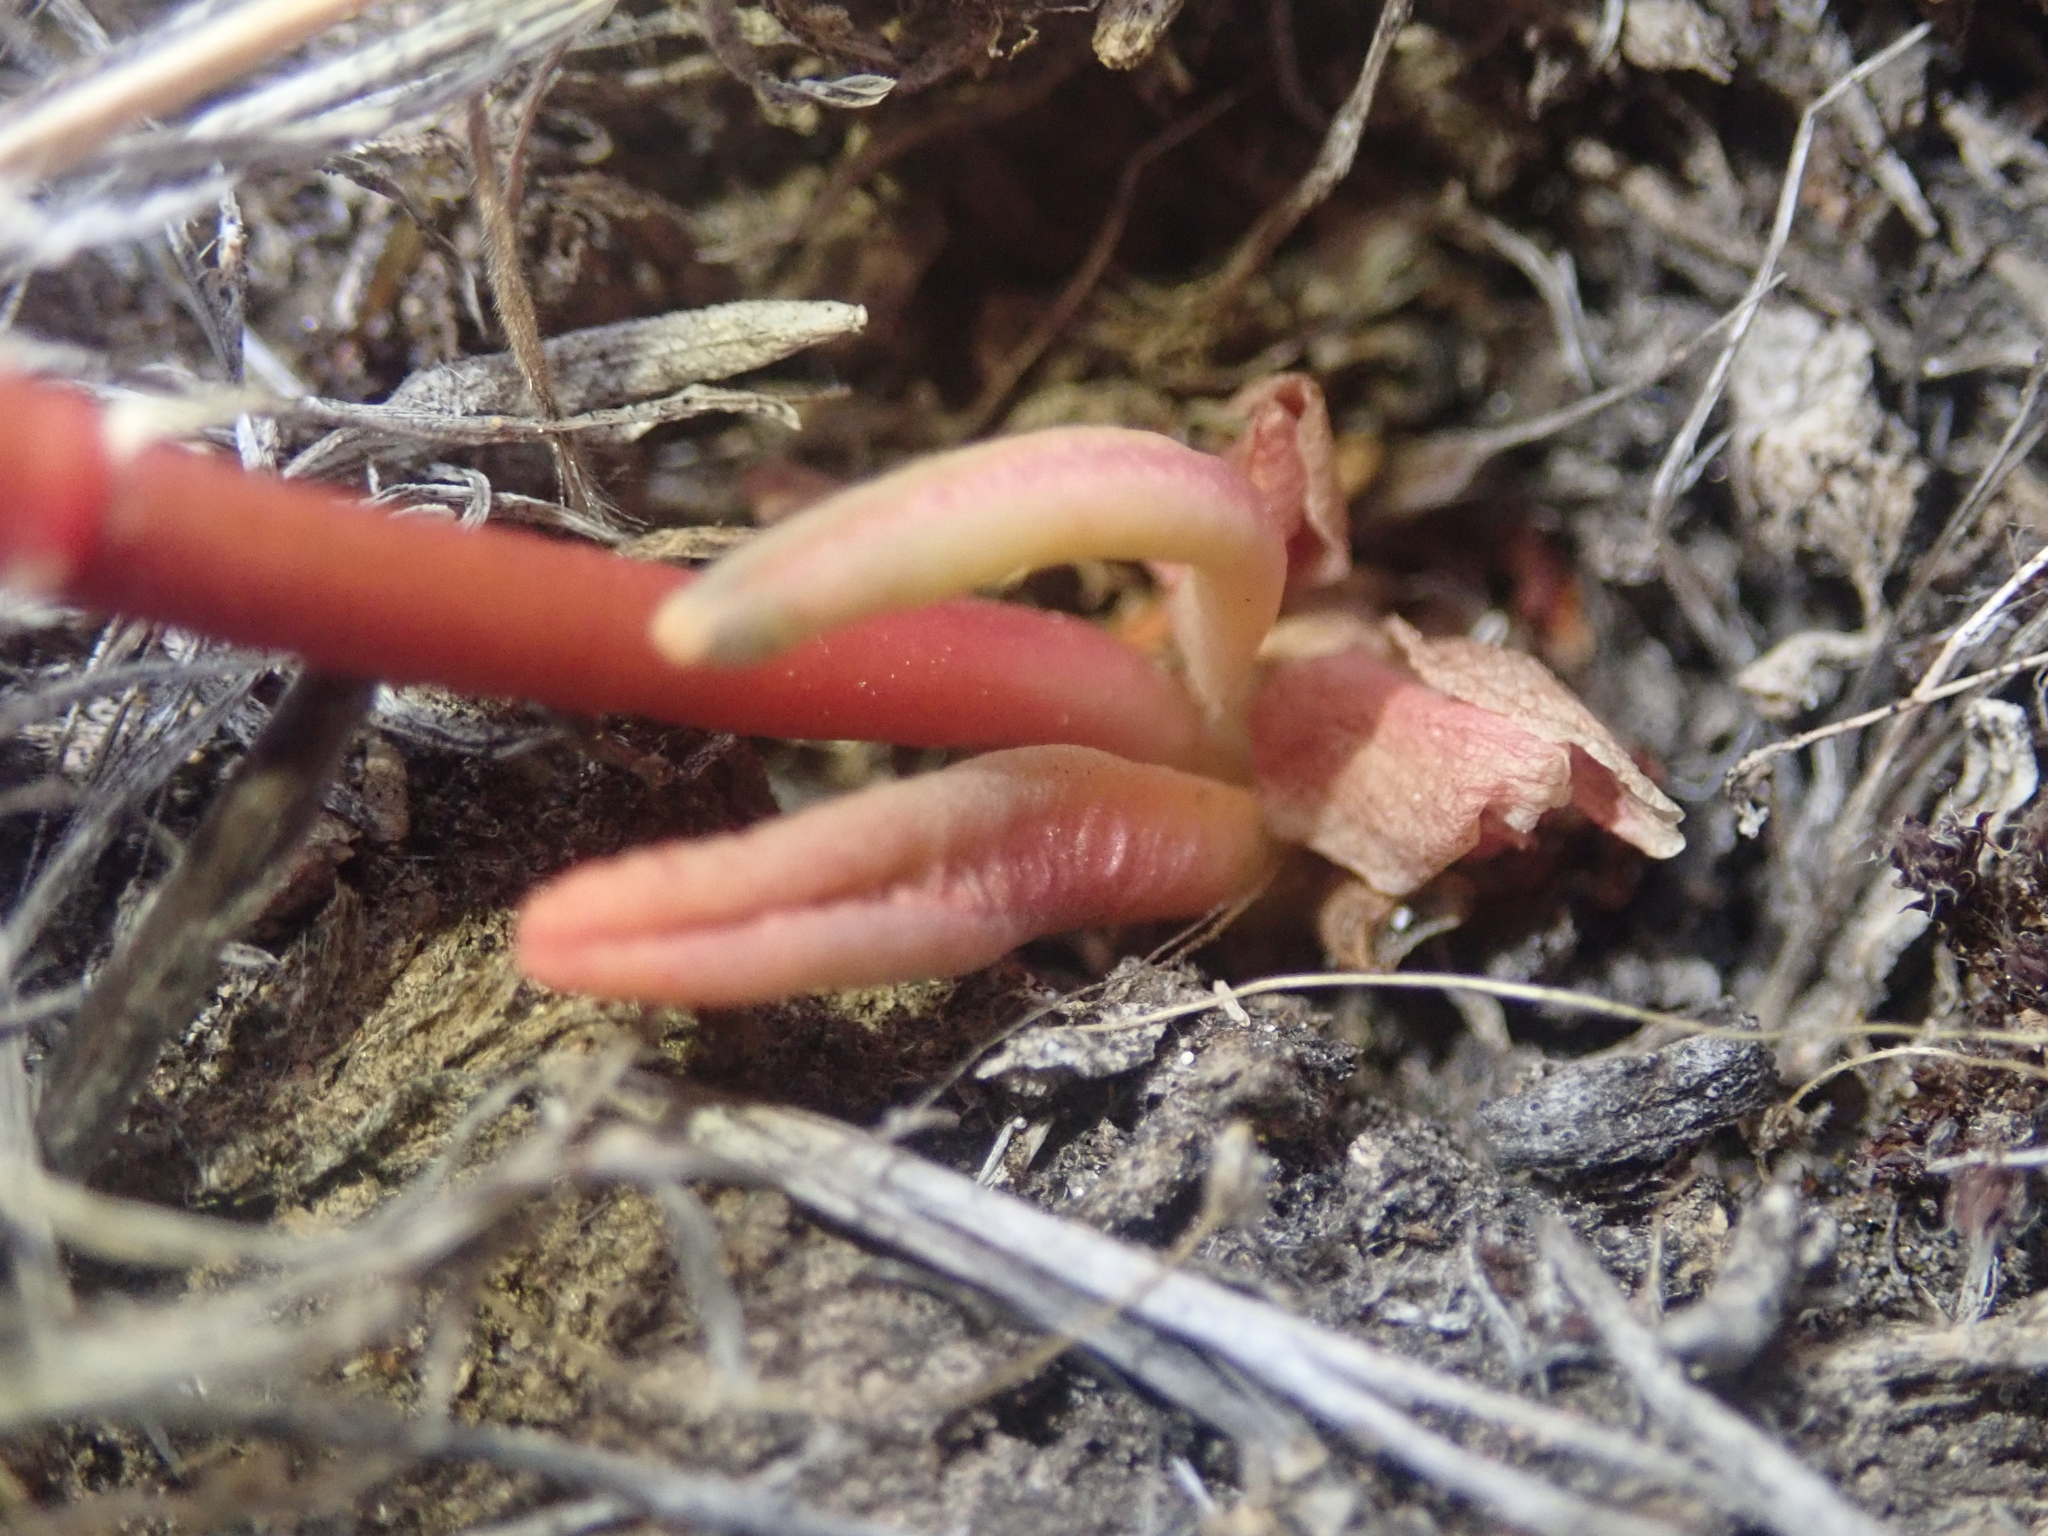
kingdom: Plantae
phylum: Tracheophyta
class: Magnoliopsida
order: Caryophyllales
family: Montiaceae
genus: Lewisia
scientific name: Lewisia rediviva
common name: Bitter-root
